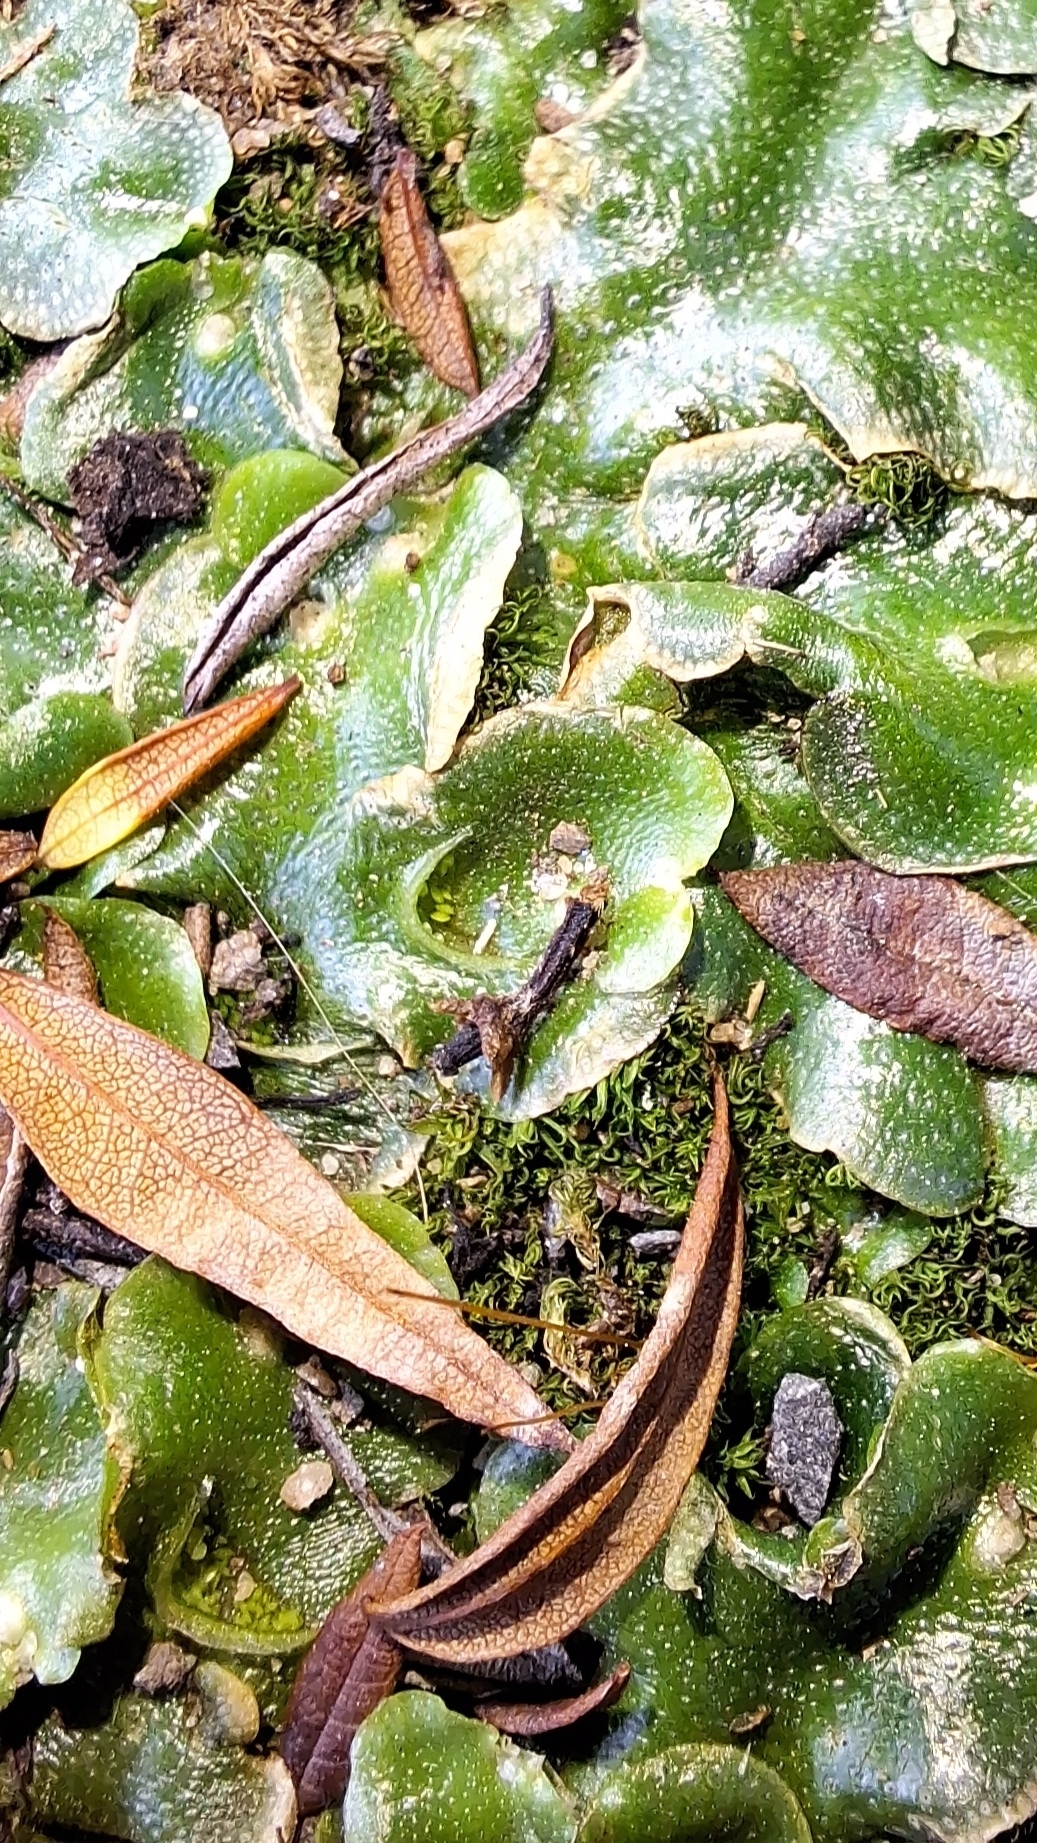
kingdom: Plantae
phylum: Marchantiophyta
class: Marchantiopsida
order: Lunulariales
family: Lunulariaceae
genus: Lunularia
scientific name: Lunularia cruciata
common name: Crescent-cup liverwort
